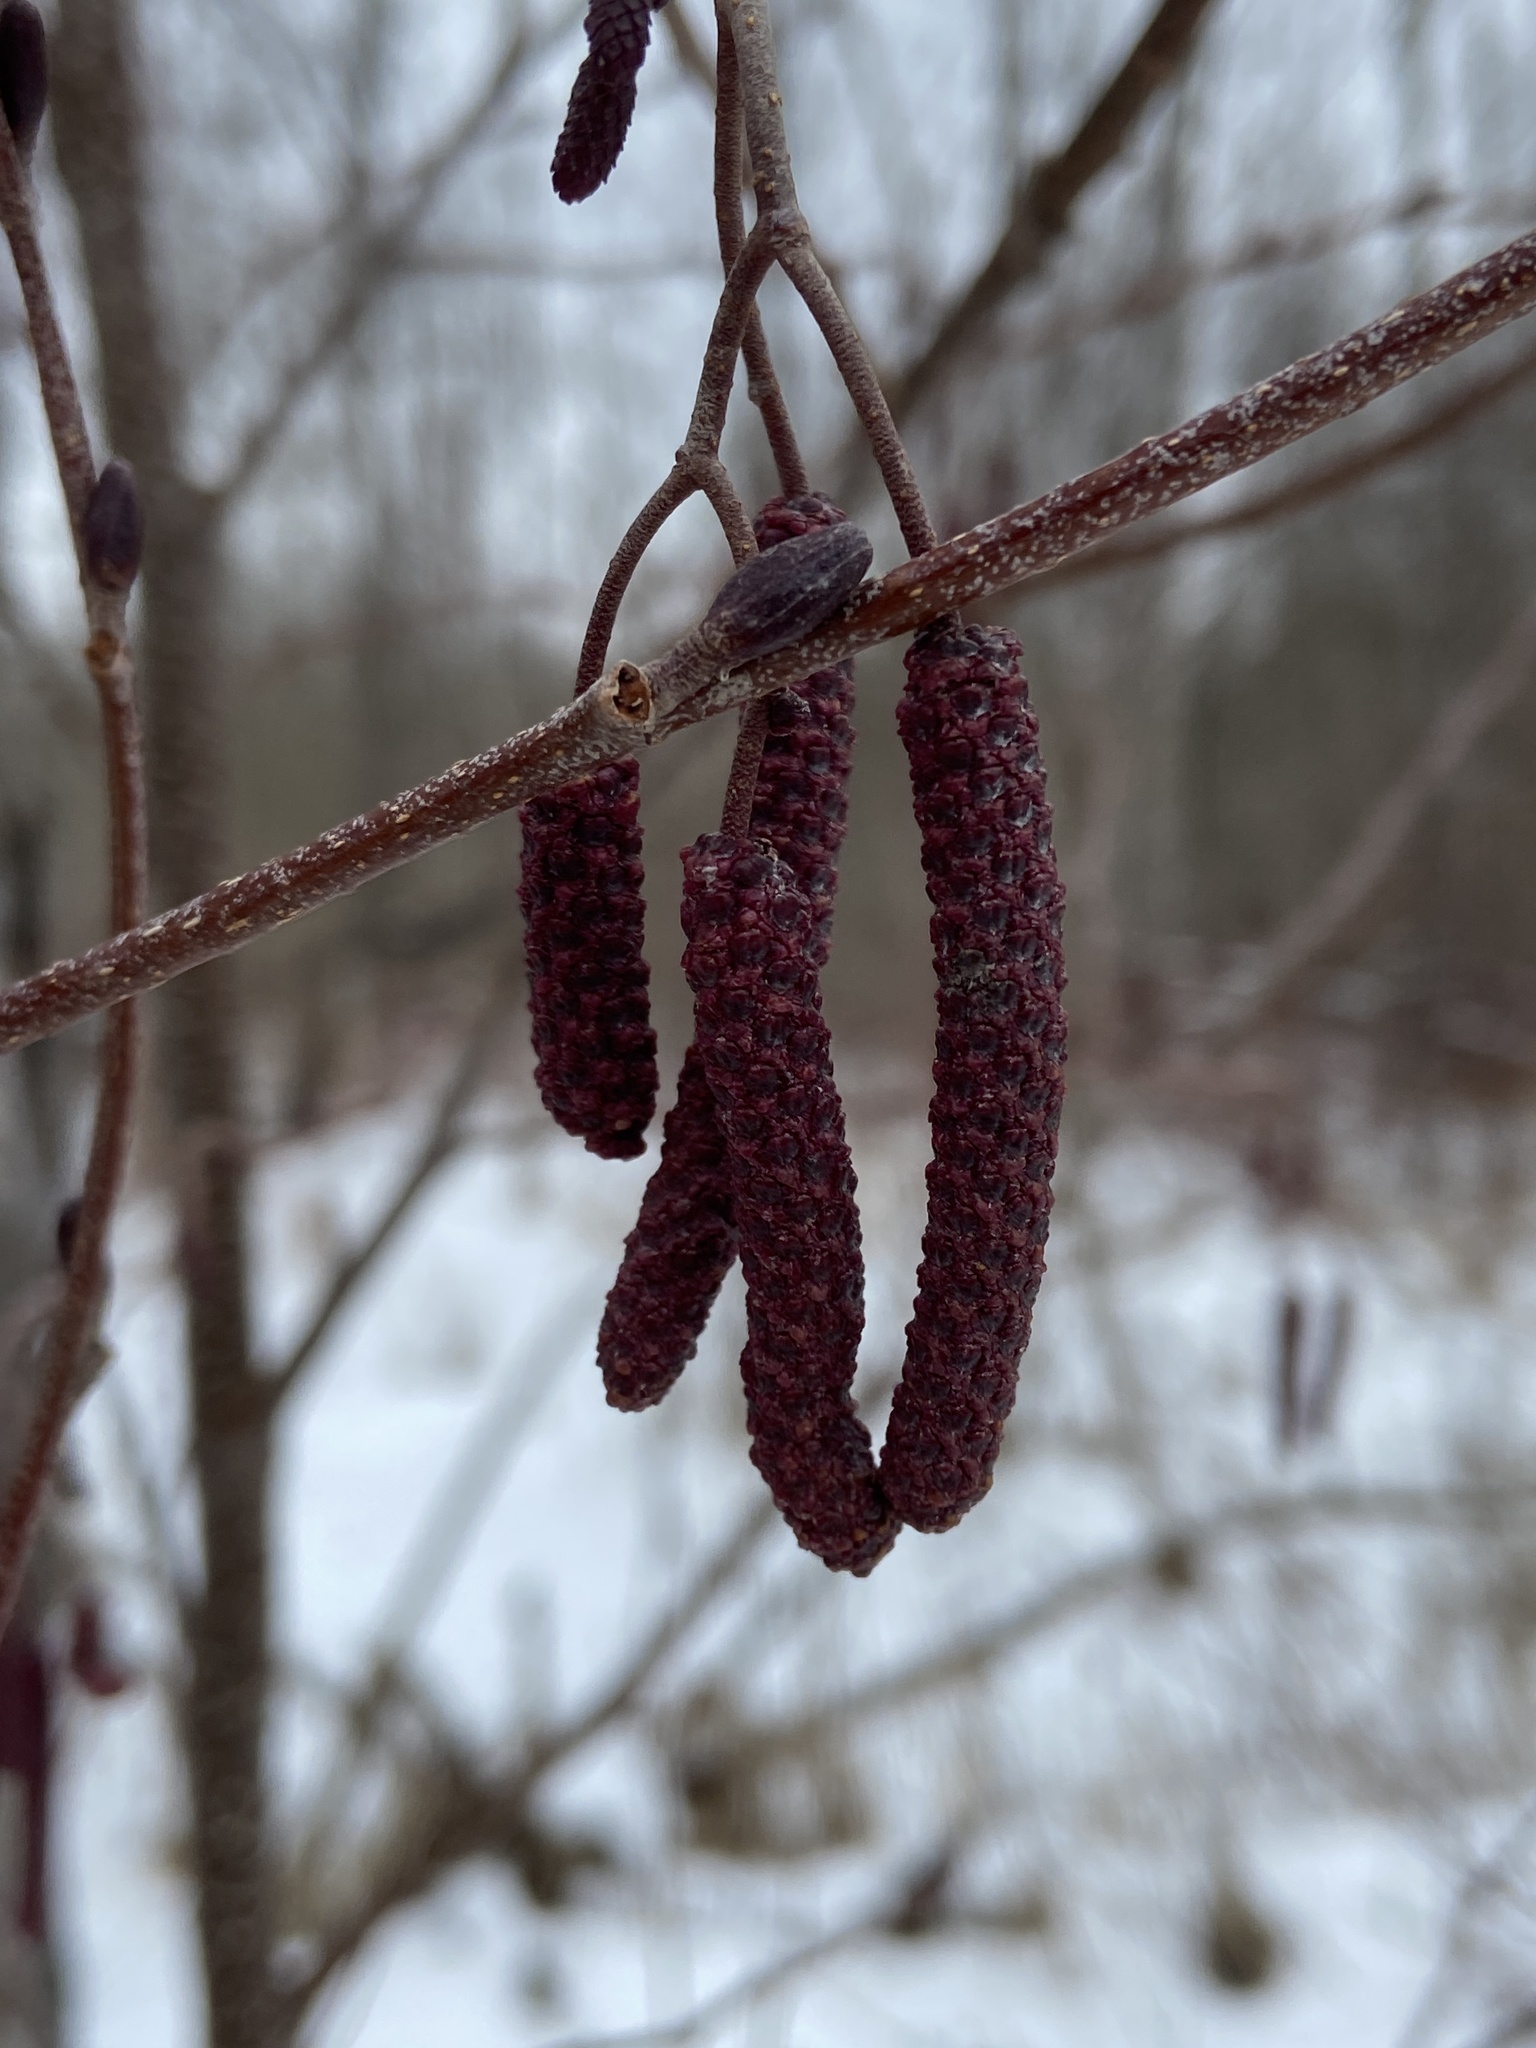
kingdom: Plantae
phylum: Tracheophyta
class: Magnoliopsida
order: Fagales
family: Betulaceae
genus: Alnus
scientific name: Alnus incana
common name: Grey alder
